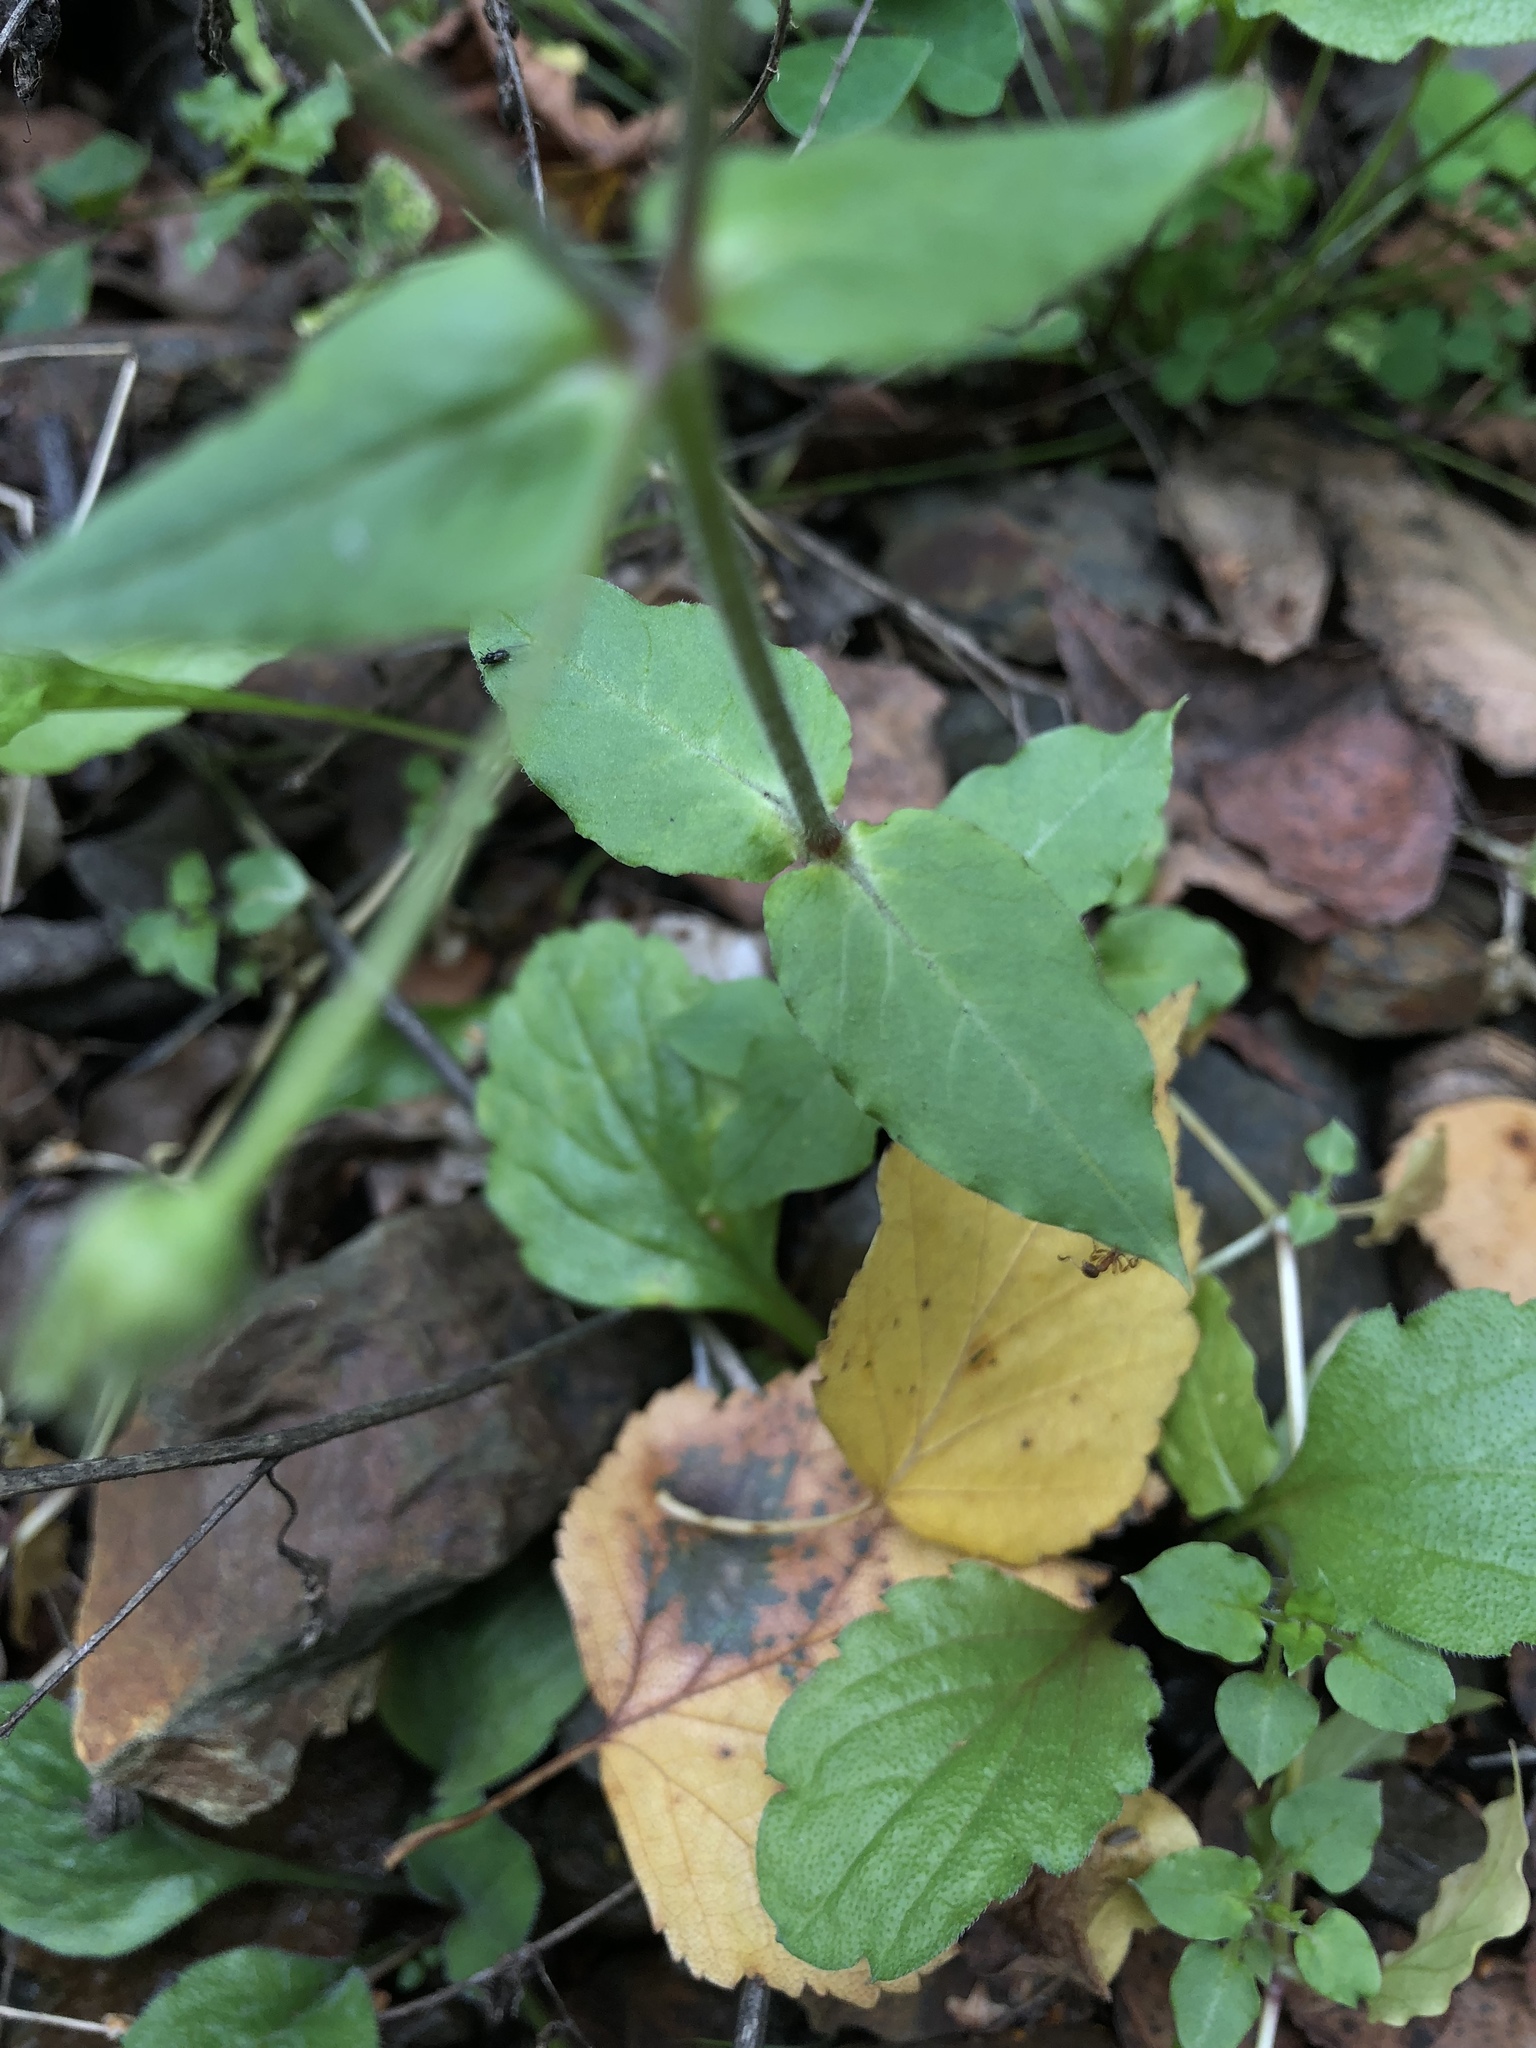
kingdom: Plantae
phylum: Tracheophyta
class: Magnoliopsida
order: Caryophyllales
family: Caryophyllaceae
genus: Stellaria
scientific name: Stellaria aquatica
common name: Water chickweed
